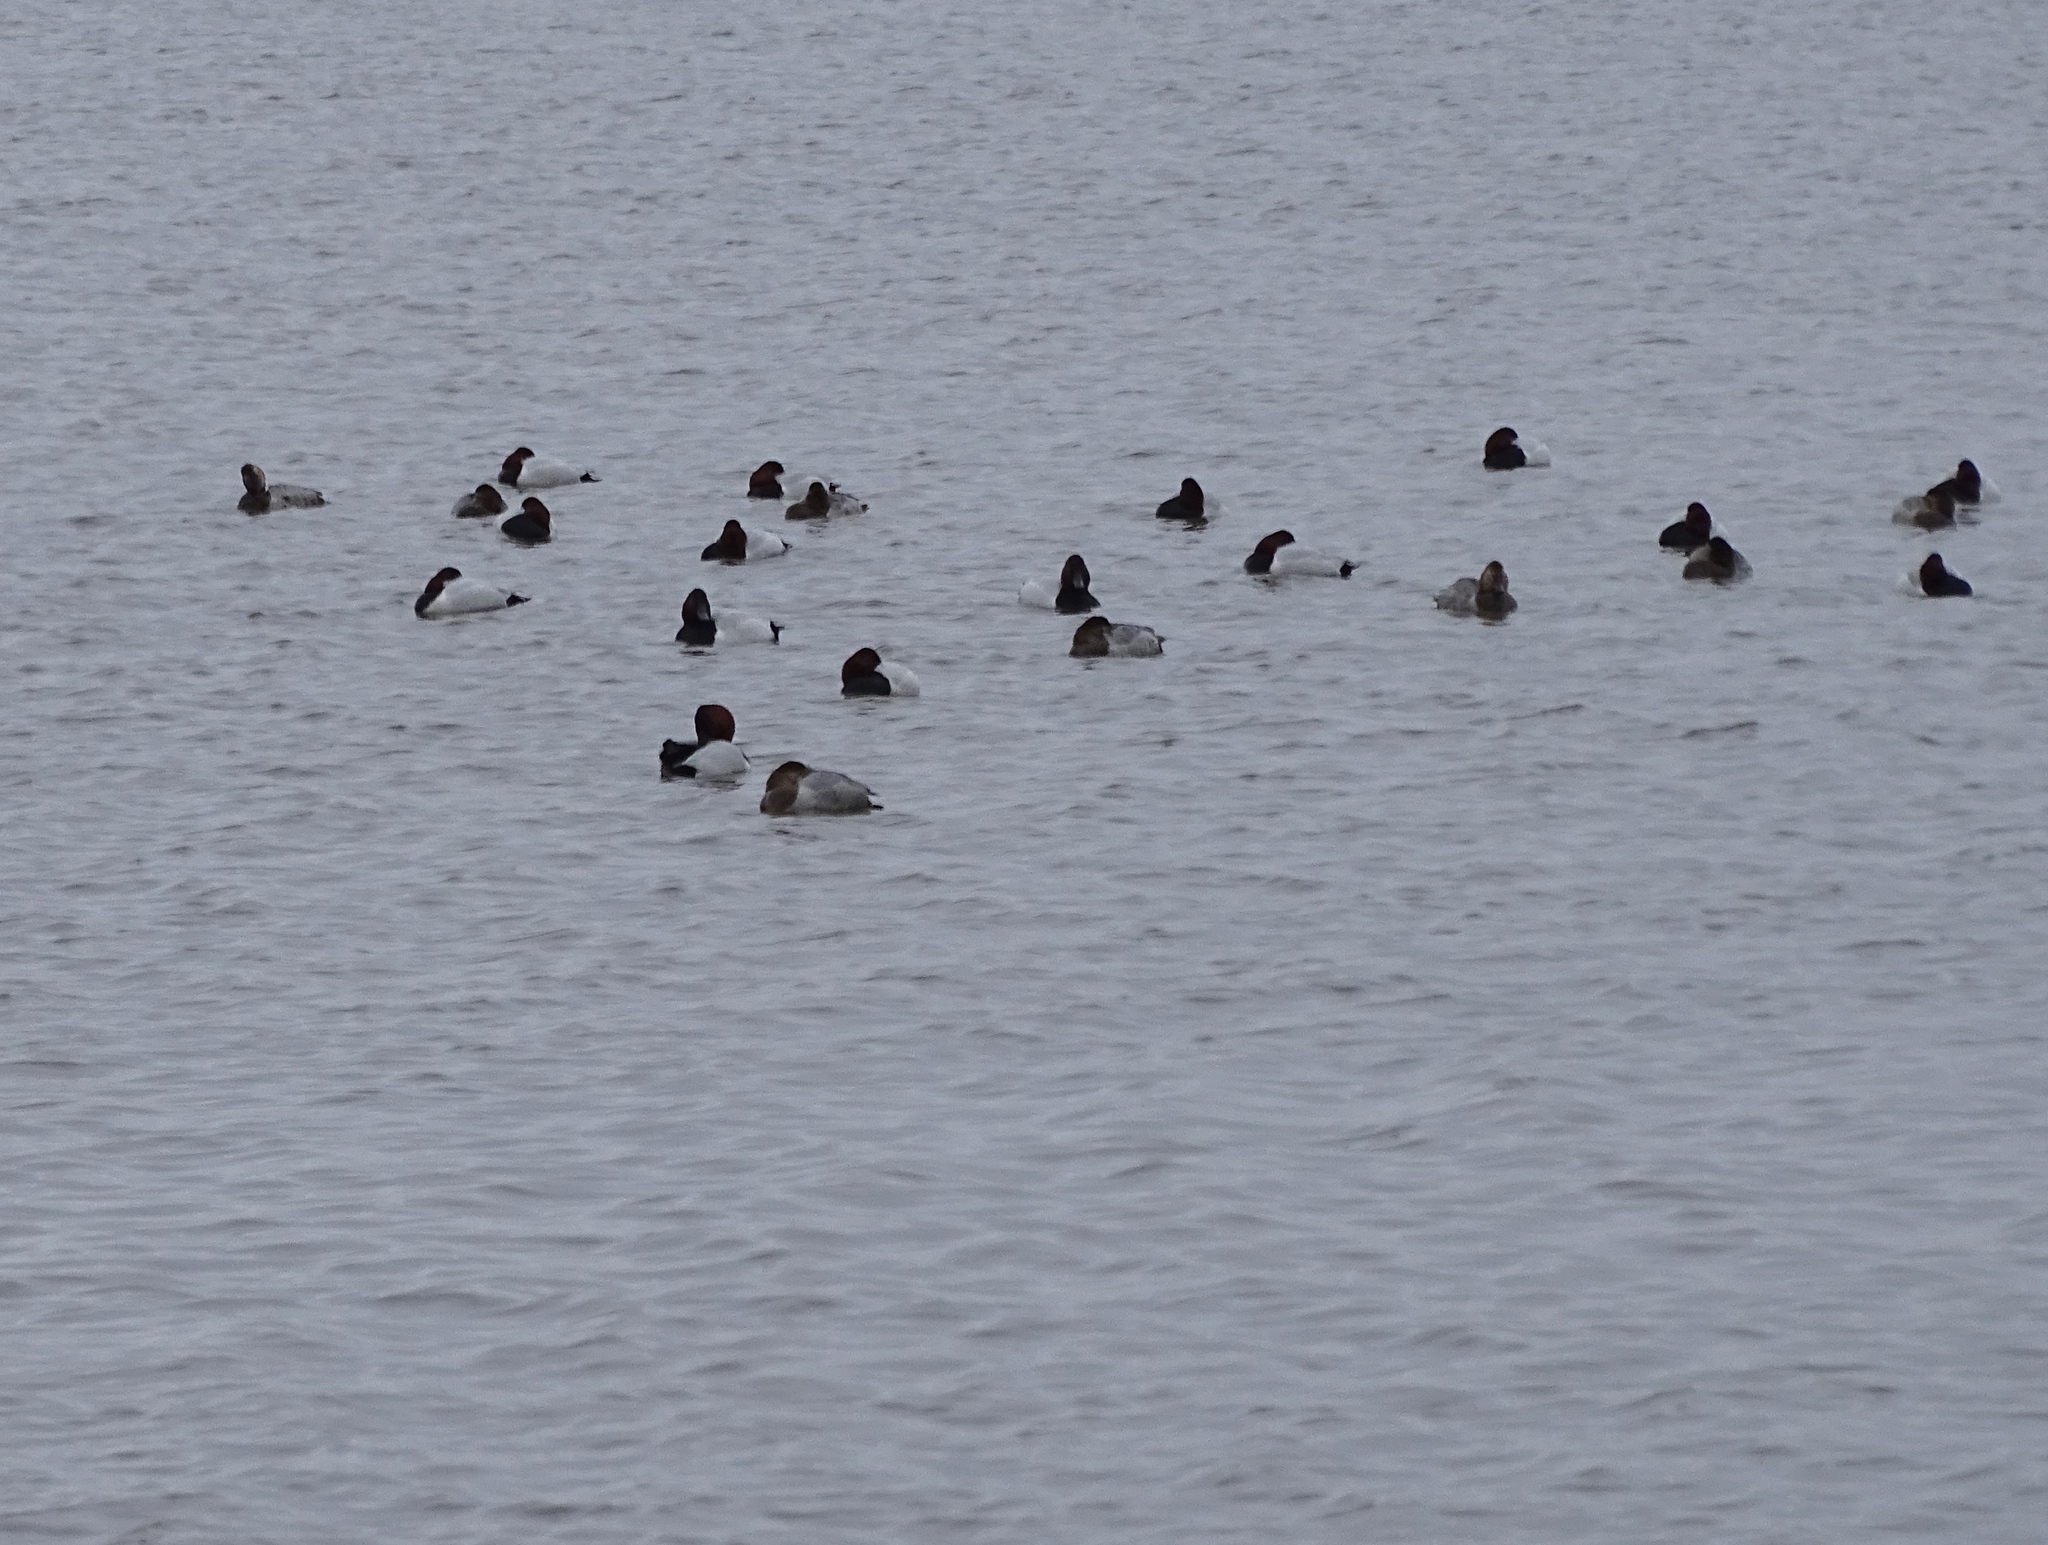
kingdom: Animalia
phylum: Chordata
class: Aves
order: Anseriformes
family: Anatidae
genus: Aythya
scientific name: Aythya valisineria
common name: Canvasback
